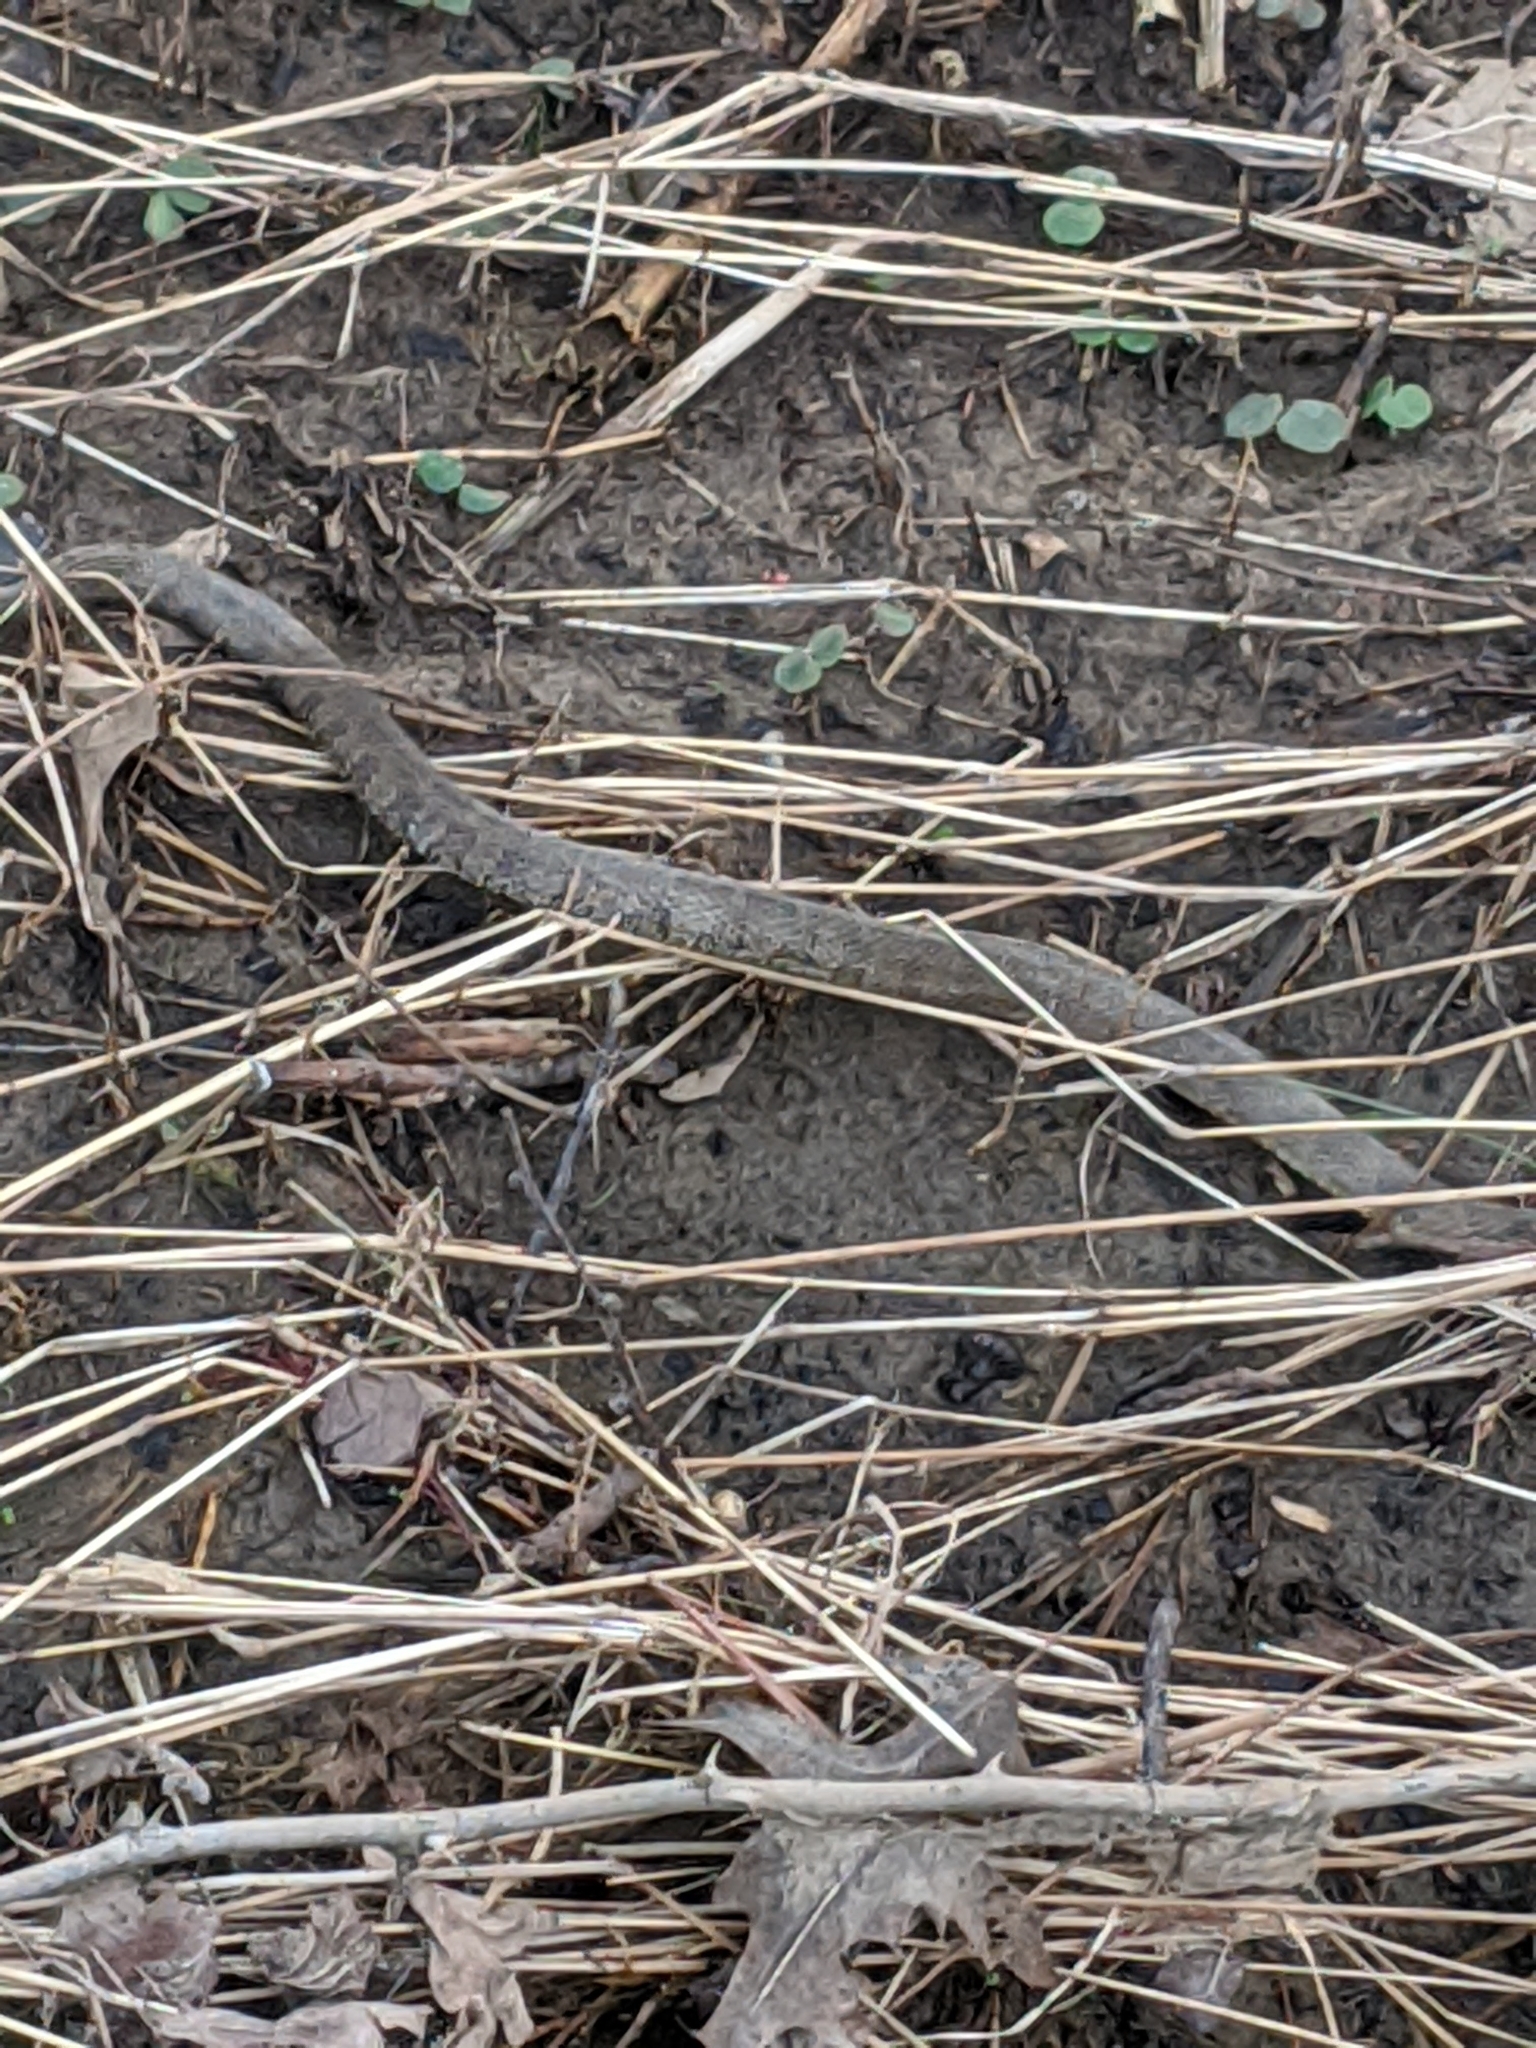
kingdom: Animalia
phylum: Chordata
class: Squamata
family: Colubridae
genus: Nerodia
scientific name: Nerodia sipedon
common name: Northern water snake
